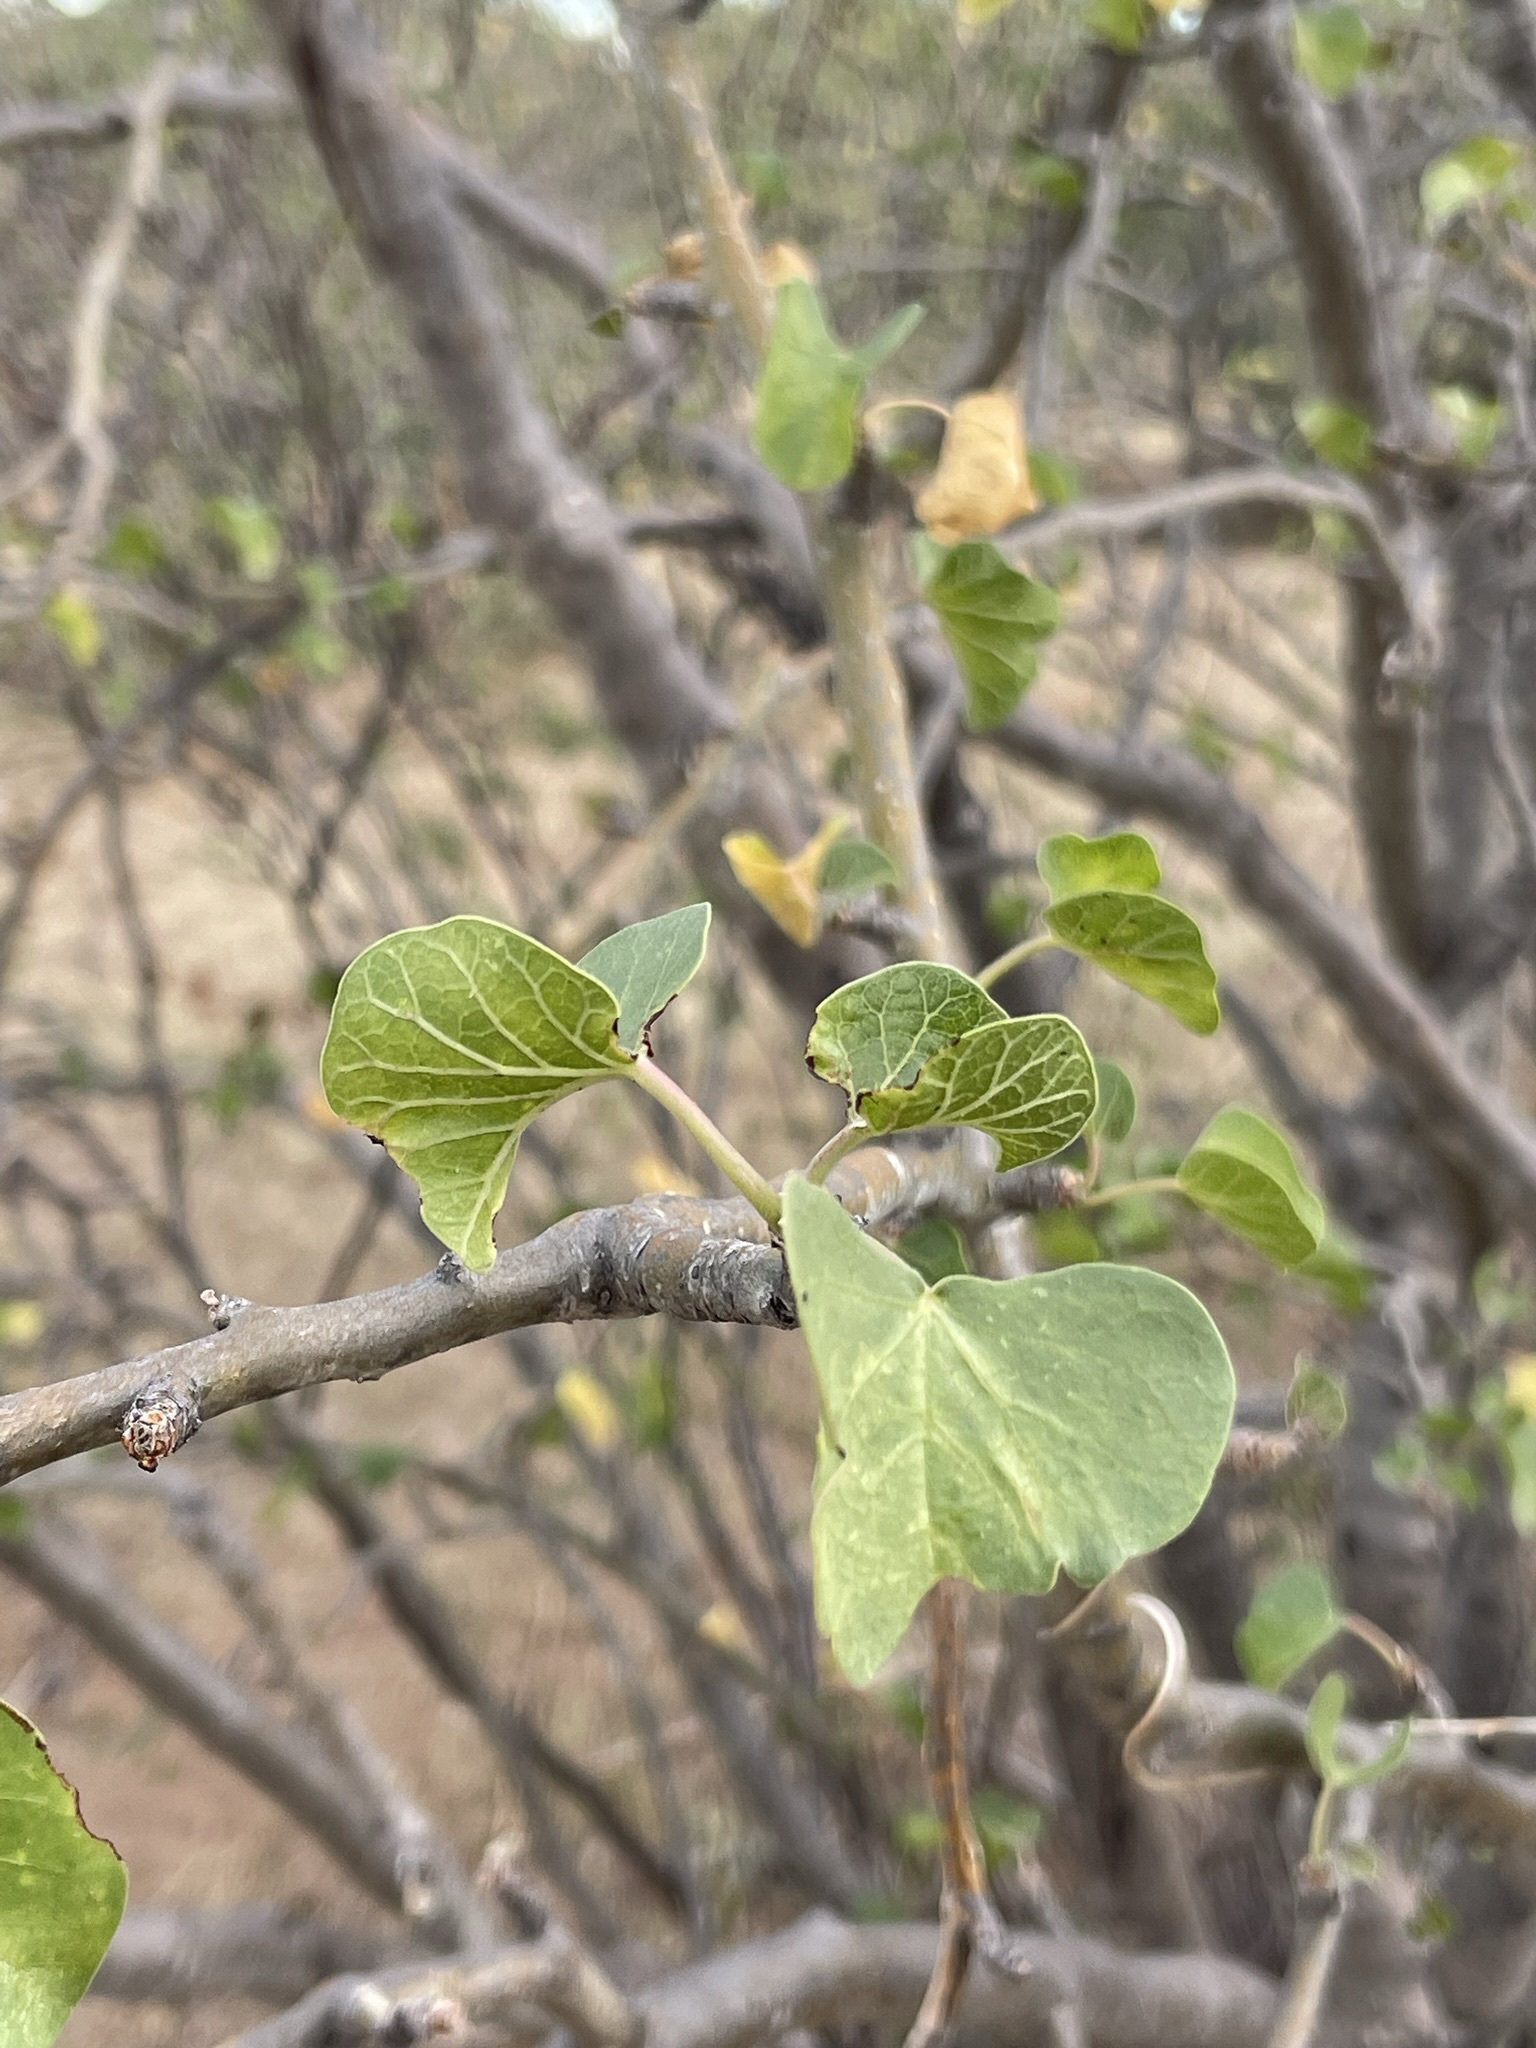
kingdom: Plantae
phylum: Tracheophyta
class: Magnoliopsida
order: Malpighiales
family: Euphorbiaceae
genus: Jatropha
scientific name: Jatropha cinerea
